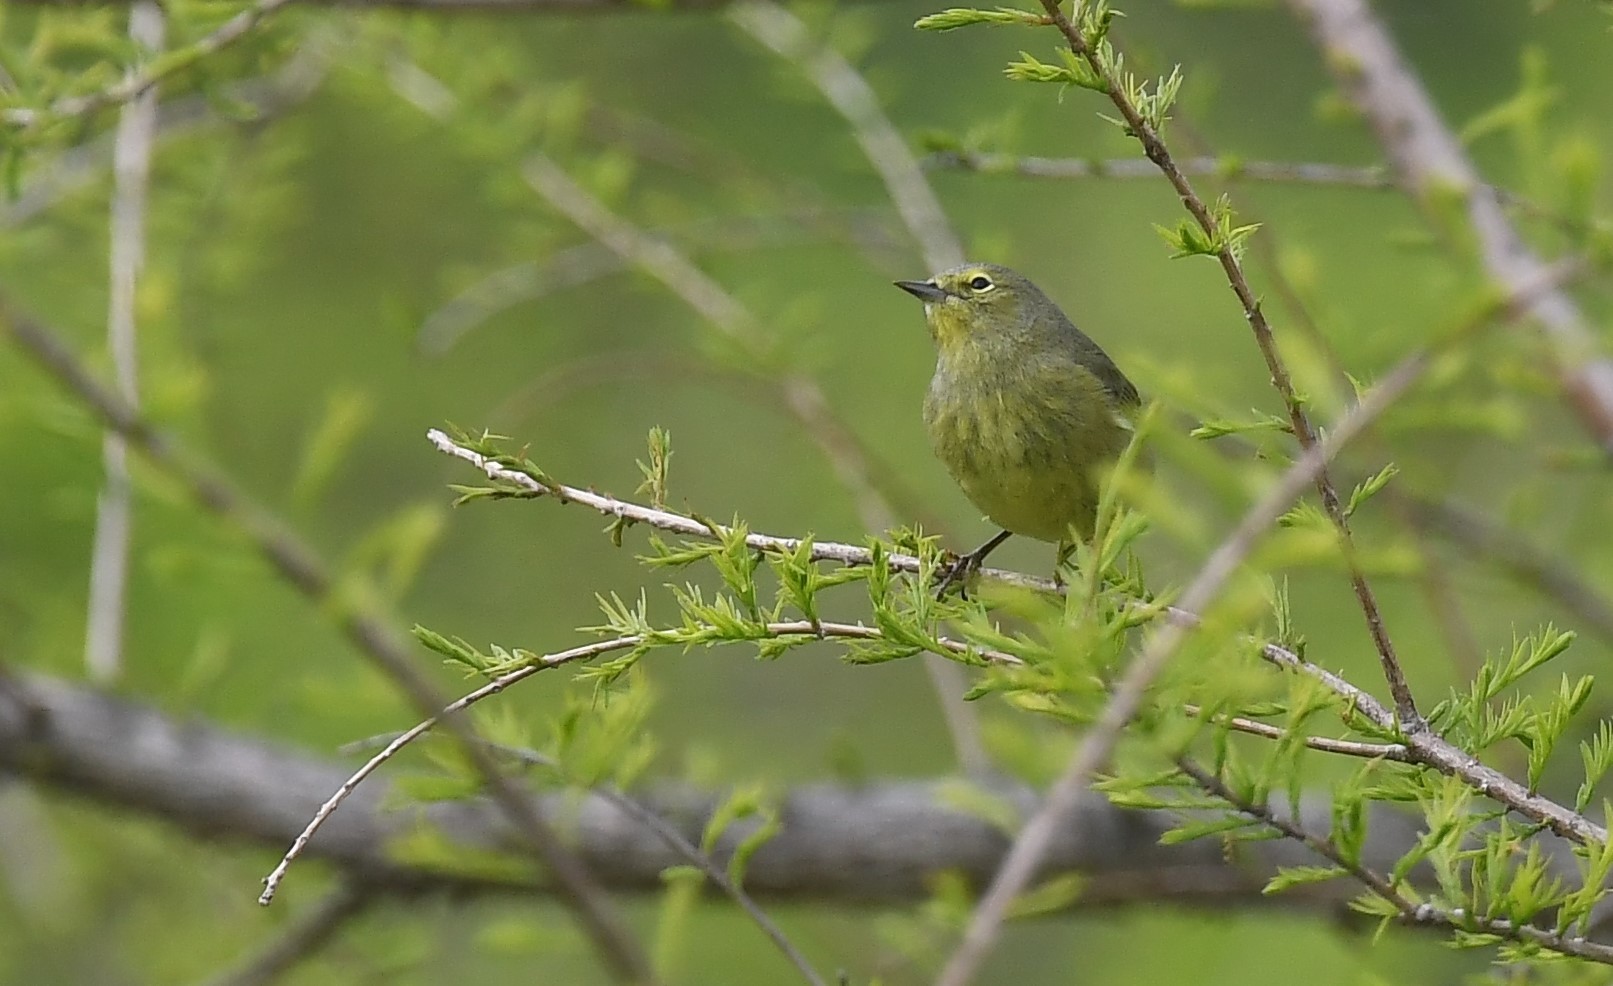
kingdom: Animalia
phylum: Chordata
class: Aves
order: Passeriformes
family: Parulidae
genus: Leiothlypis
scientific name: Leiothlypis celata
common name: Orange-crowned warbler
